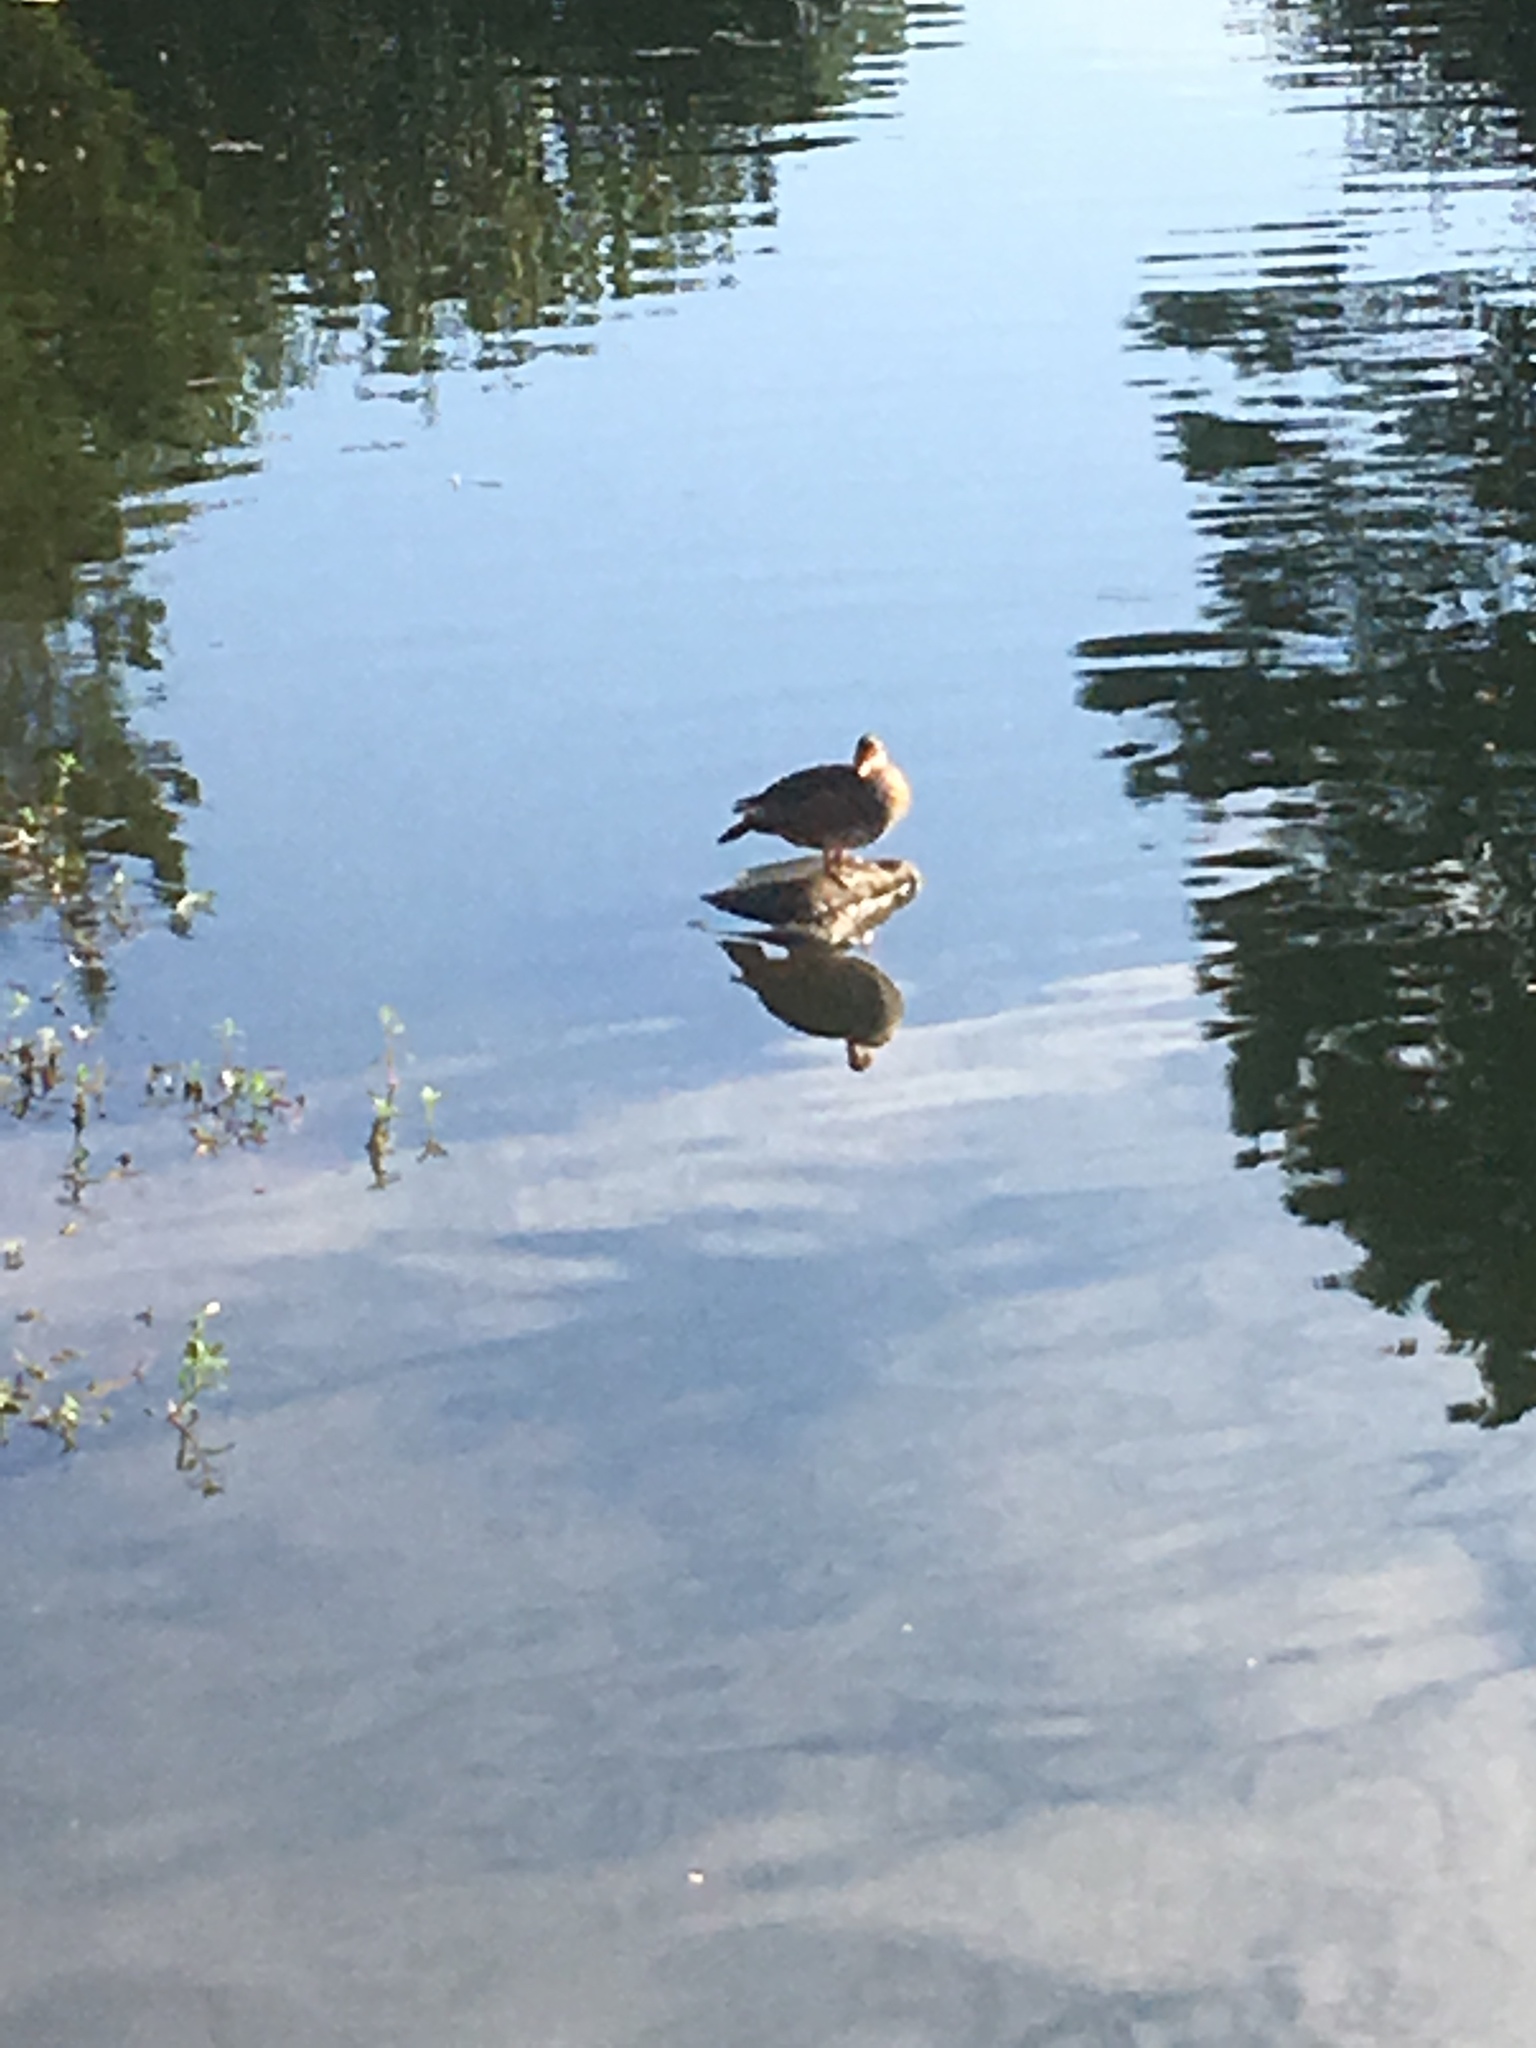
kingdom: Animalia
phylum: Chordata
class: Aves
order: Anseriformes
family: Anatidae
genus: Aix
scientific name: Aix sponsa
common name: Wood duck
